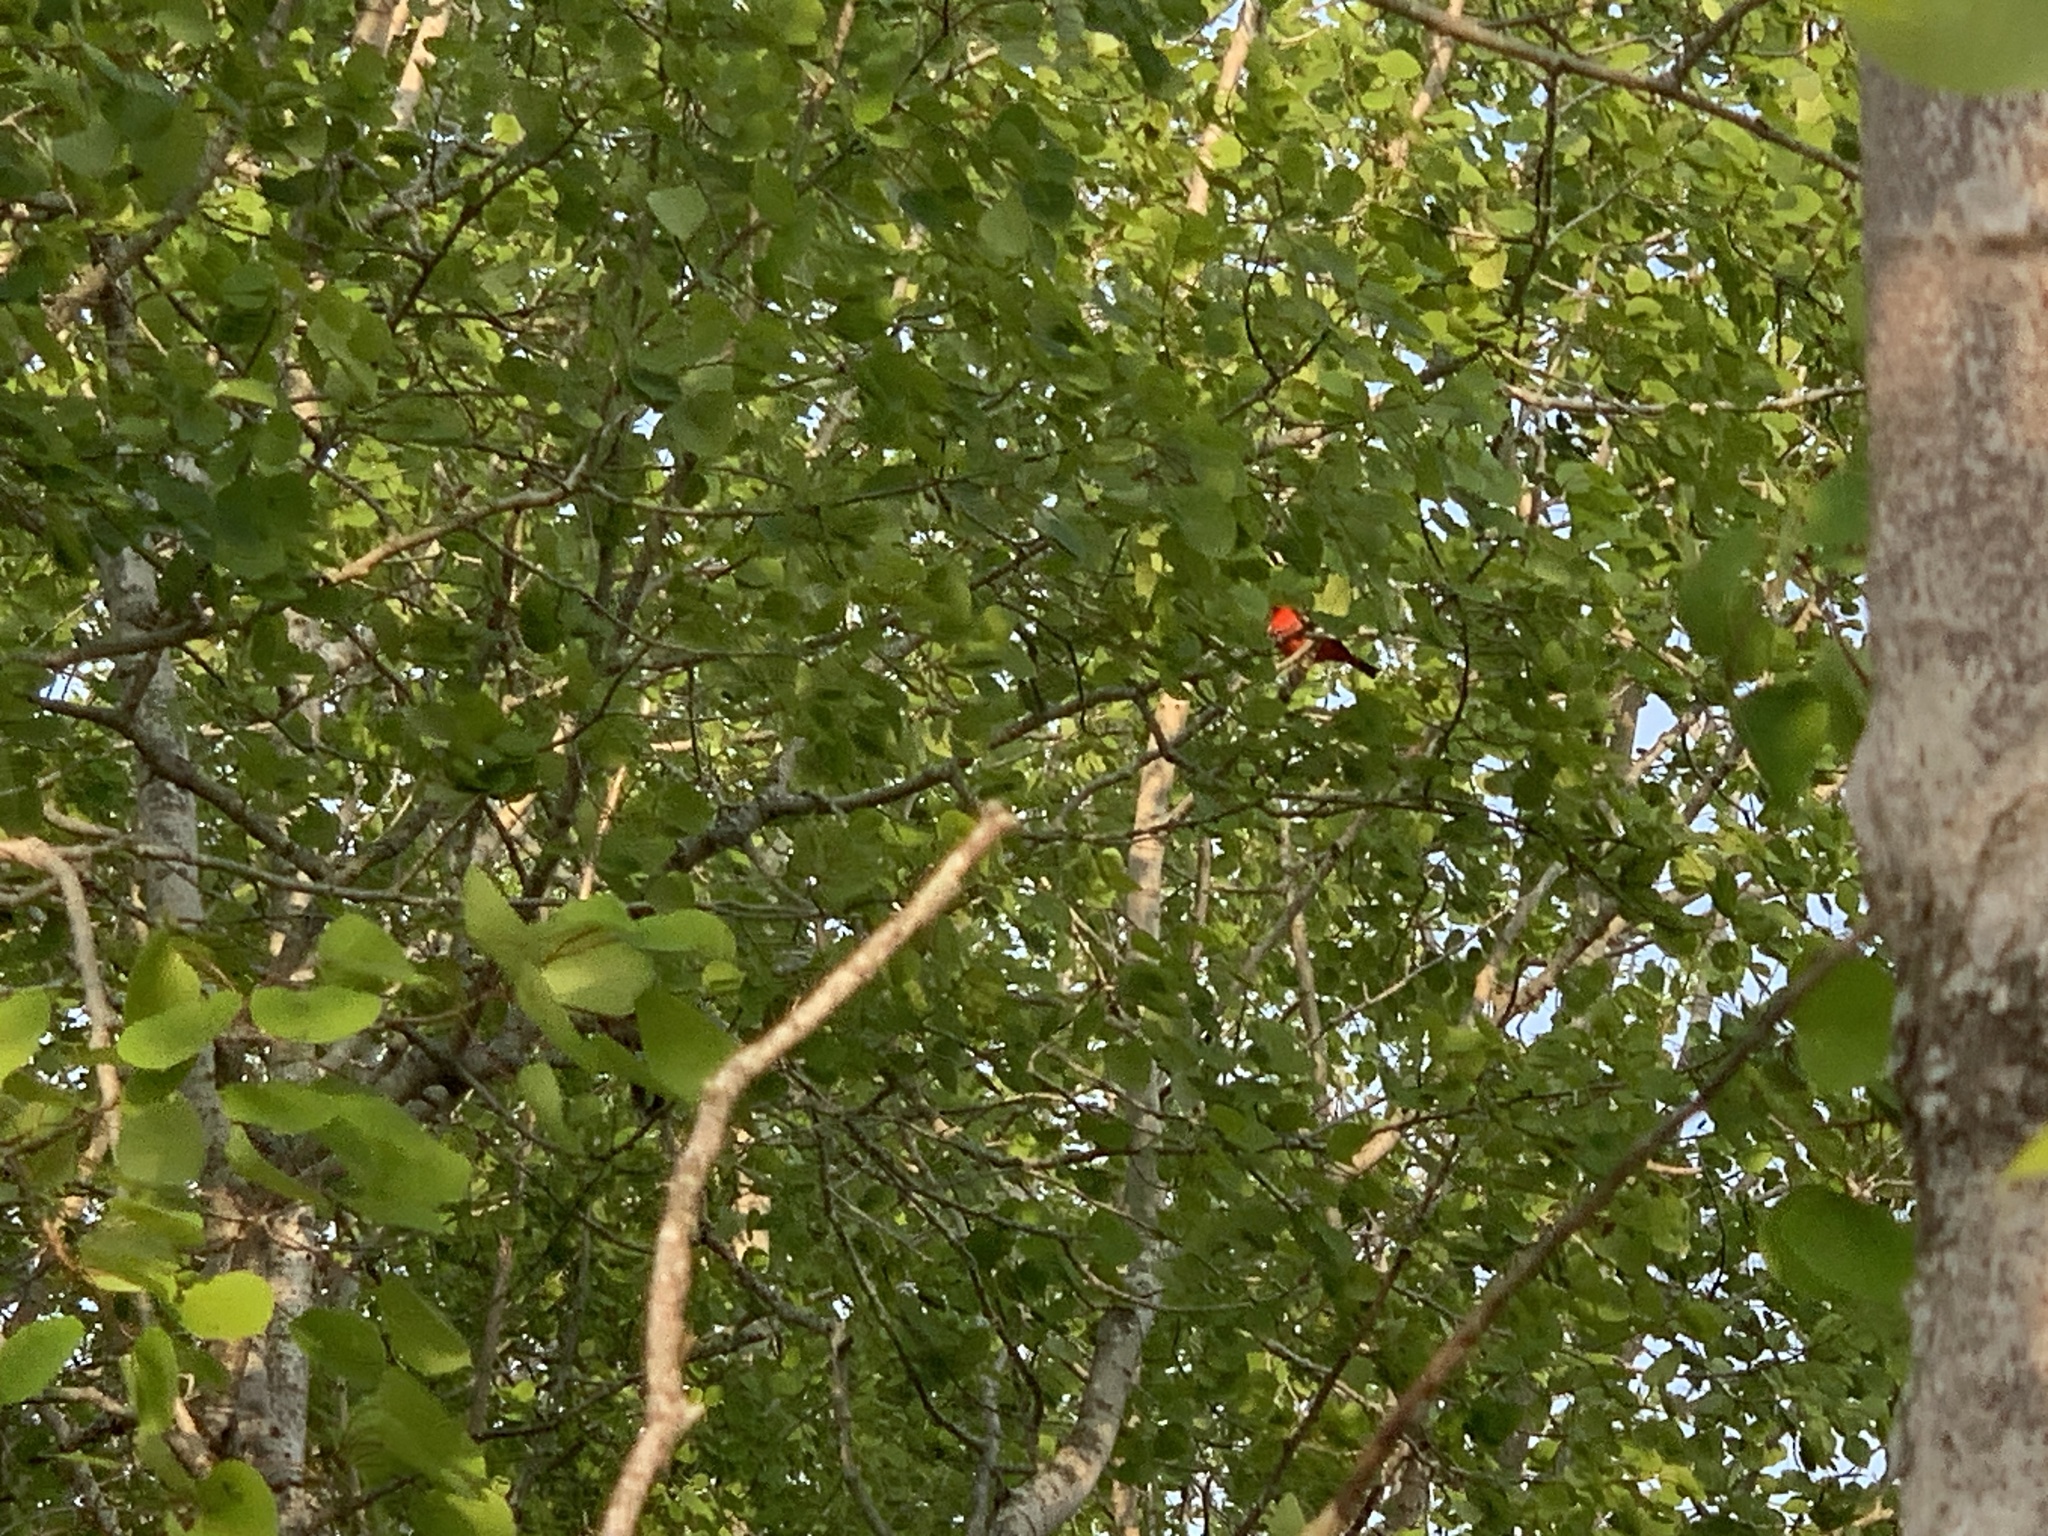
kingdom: Animalia
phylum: Chordata
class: Aves
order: Passeriformes
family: Cardinalidae
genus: Piranga
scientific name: Piranga olivacea
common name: Scarlet tanager
